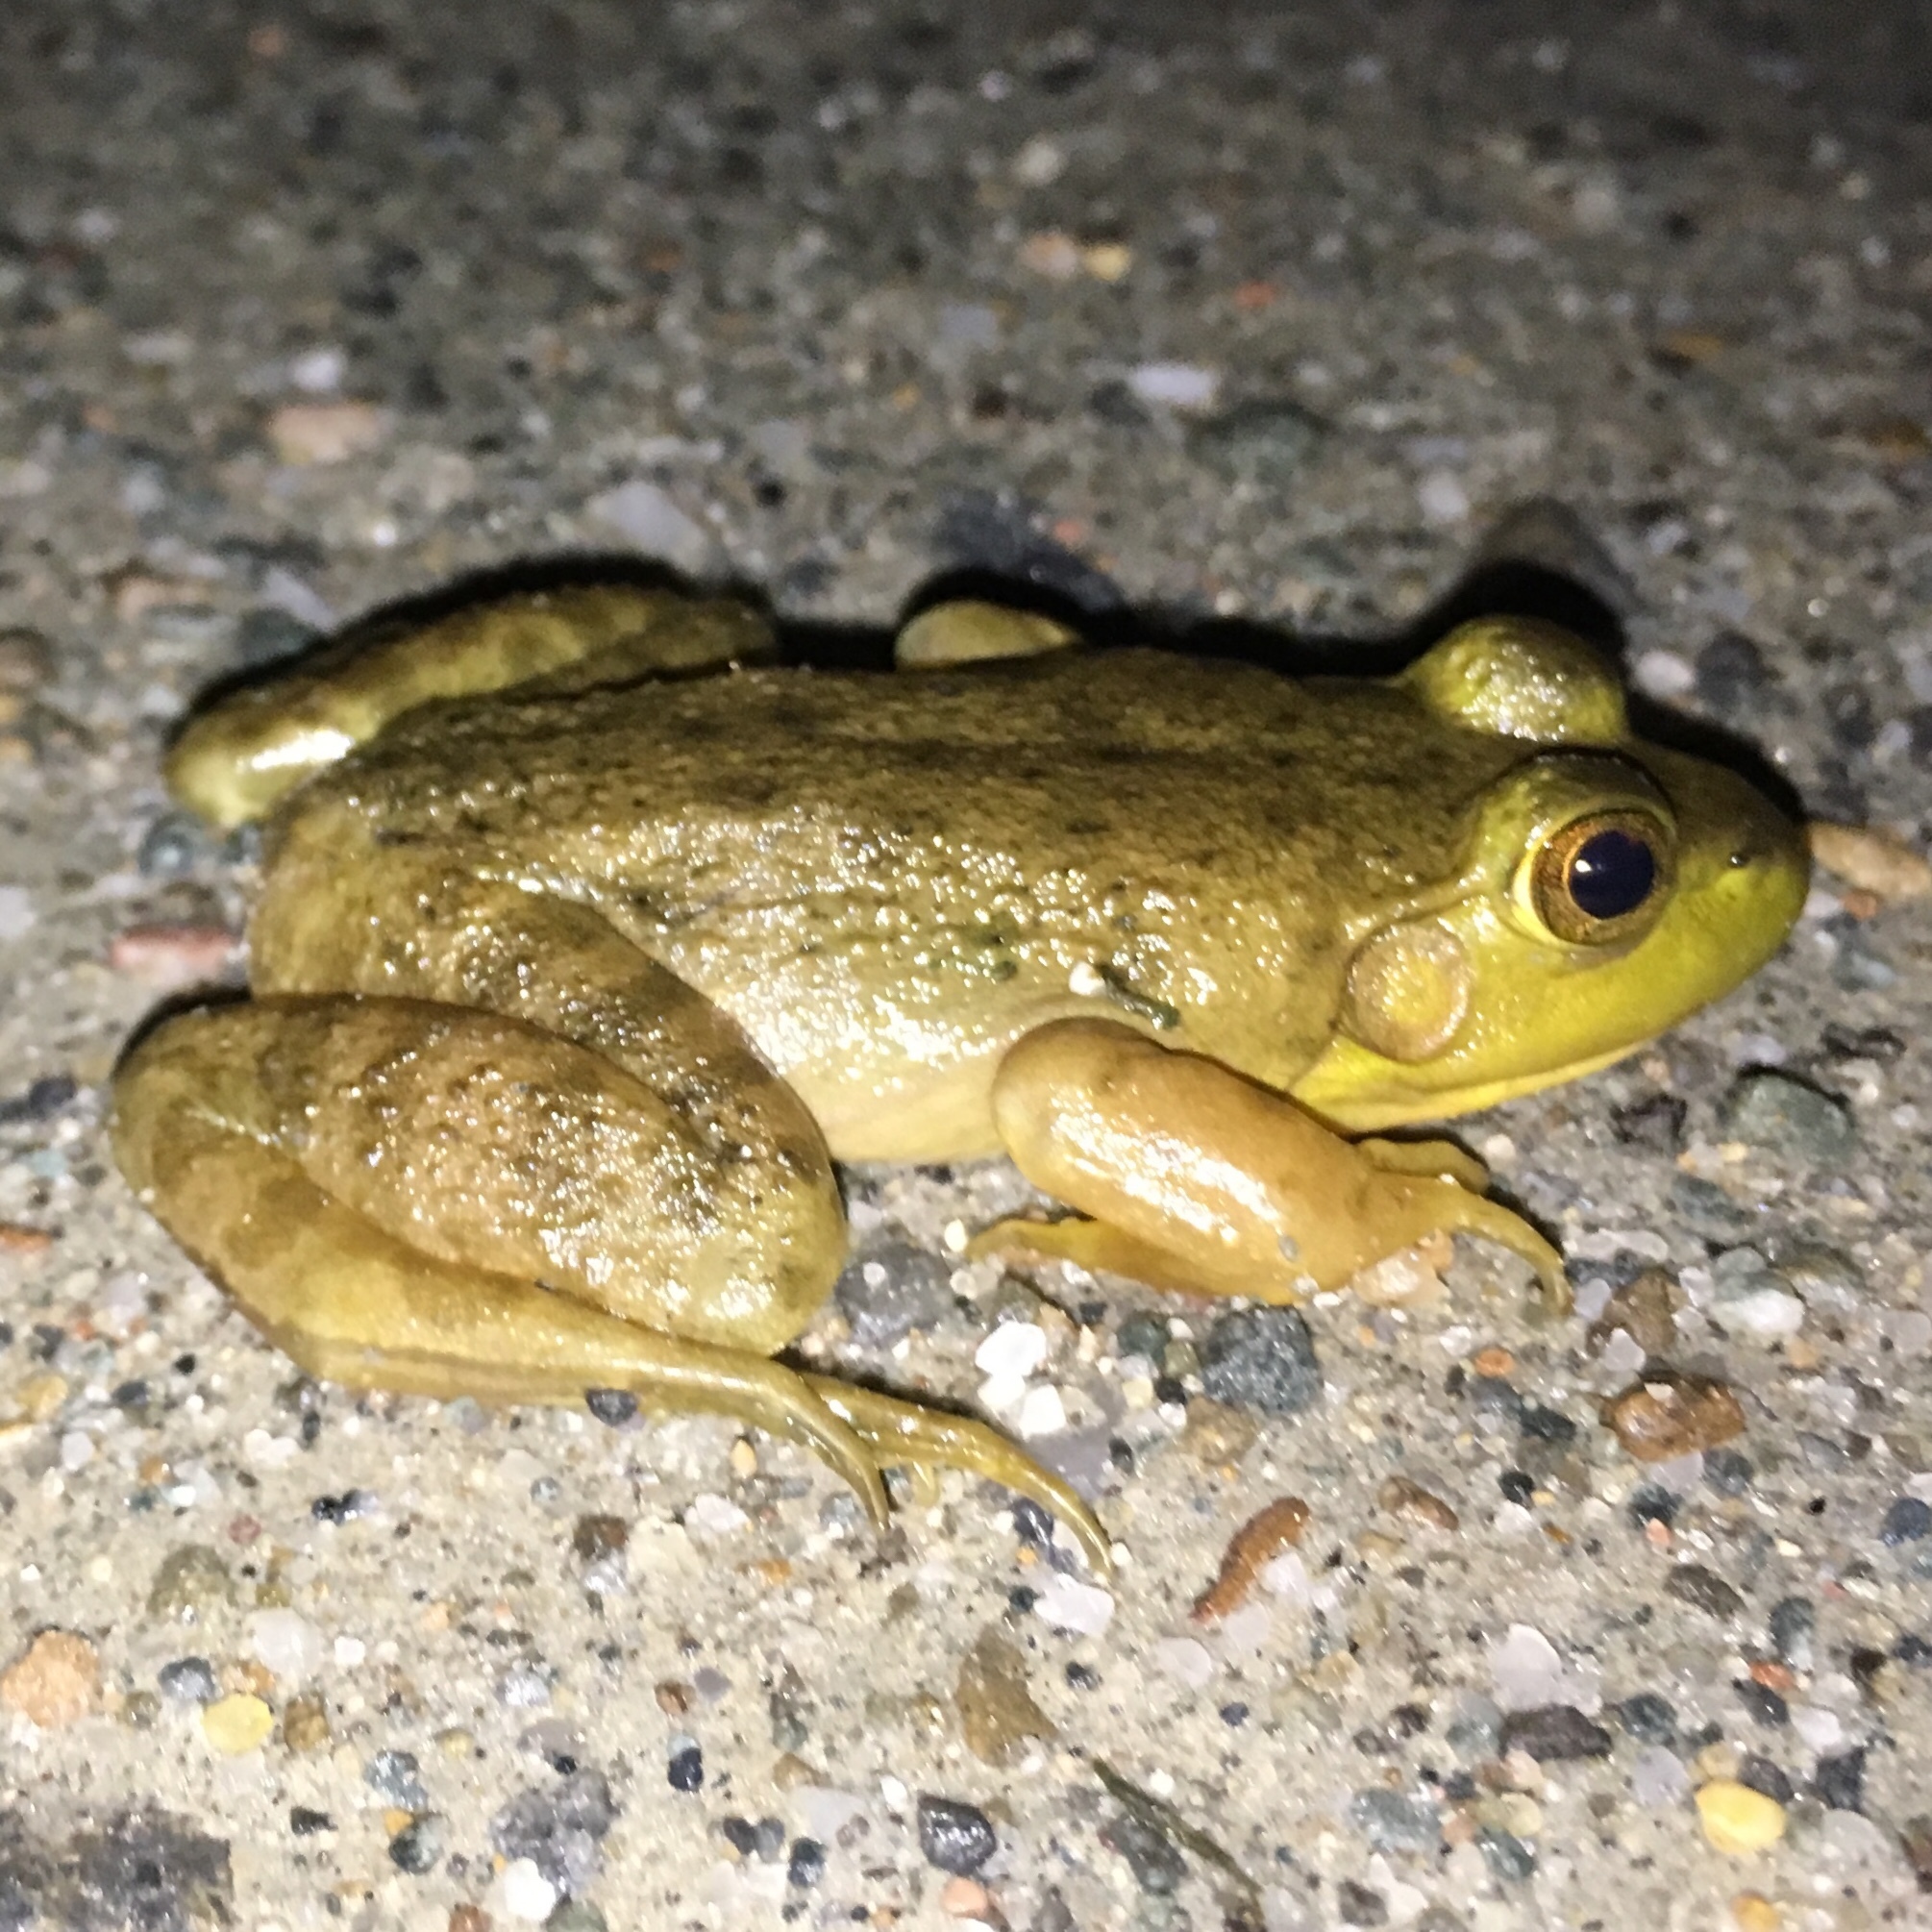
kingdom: Animalia
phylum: Chordata
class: Amphibia
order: Anura
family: Ranidae
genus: Lithobates
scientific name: Lithobates catesbeianus
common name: American bullfrog
